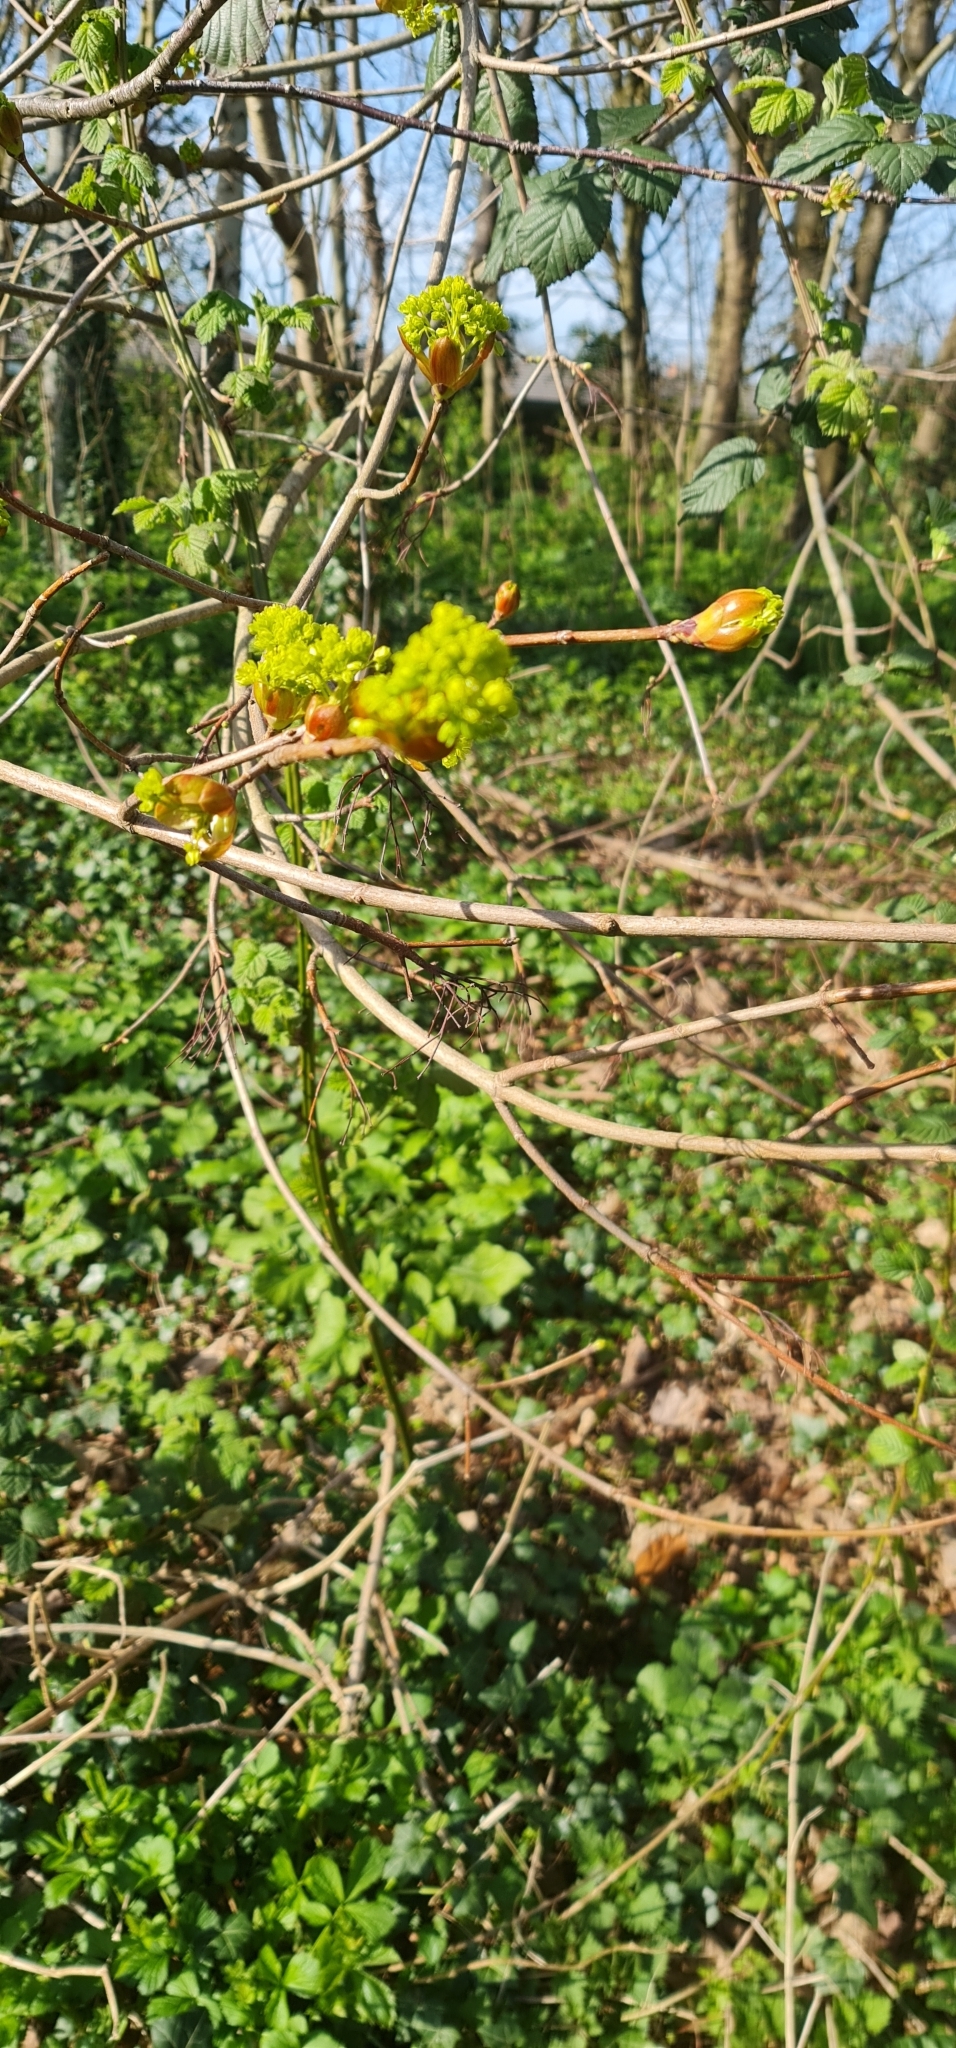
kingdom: Plantae
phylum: Tracheophyta
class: Magnoliopsida
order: Sapindales
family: Sapindaceae
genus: Acer
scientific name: Acer platanoides
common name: Norway maple
